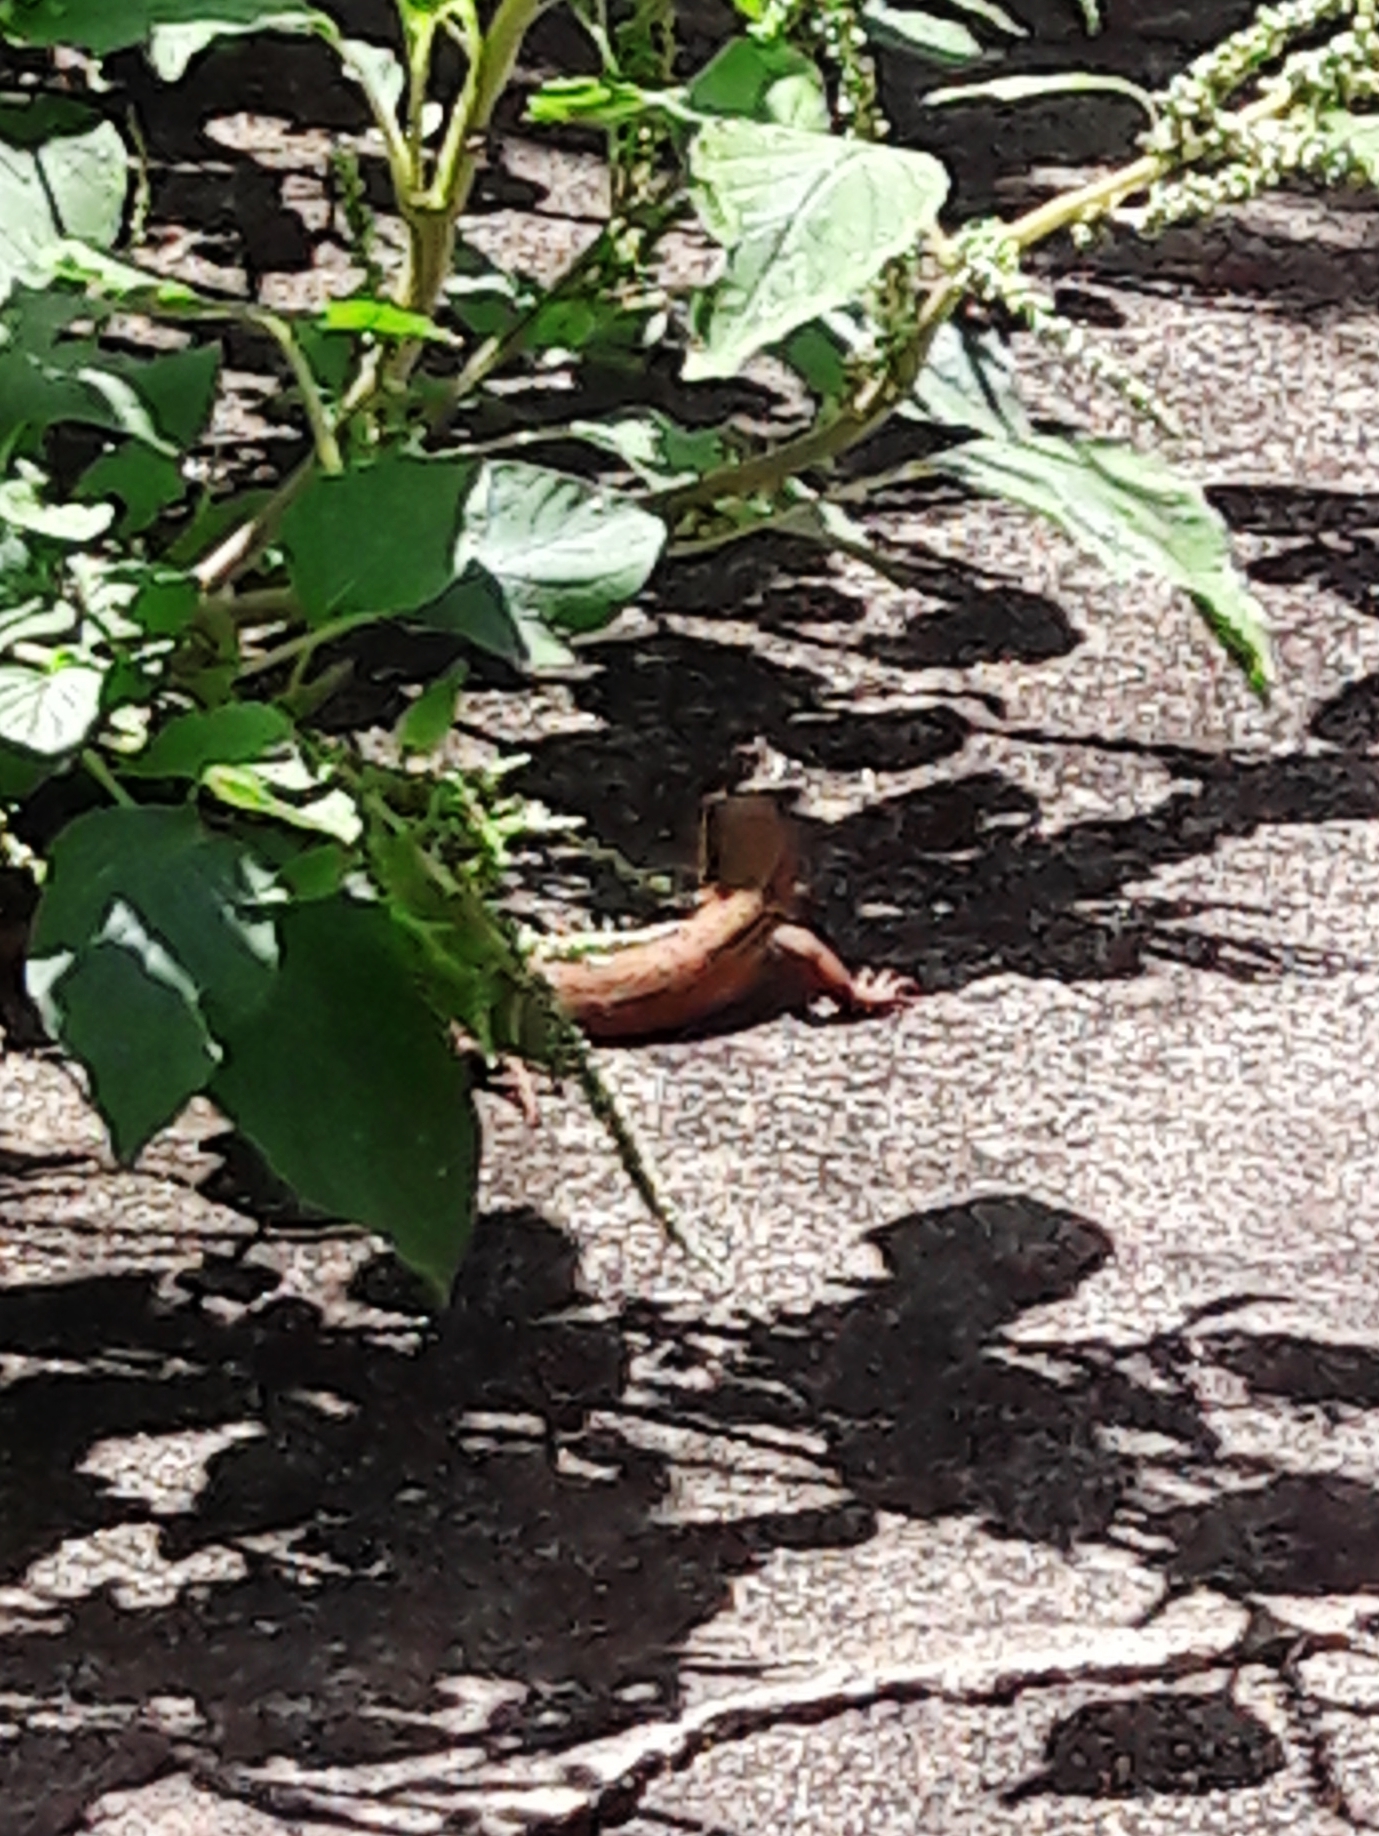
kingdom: Animalia
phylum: Chordata
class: Squamata
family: Teiidae
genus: Ameiva
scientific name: Ameiva ameiva
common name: Giant ameiva
